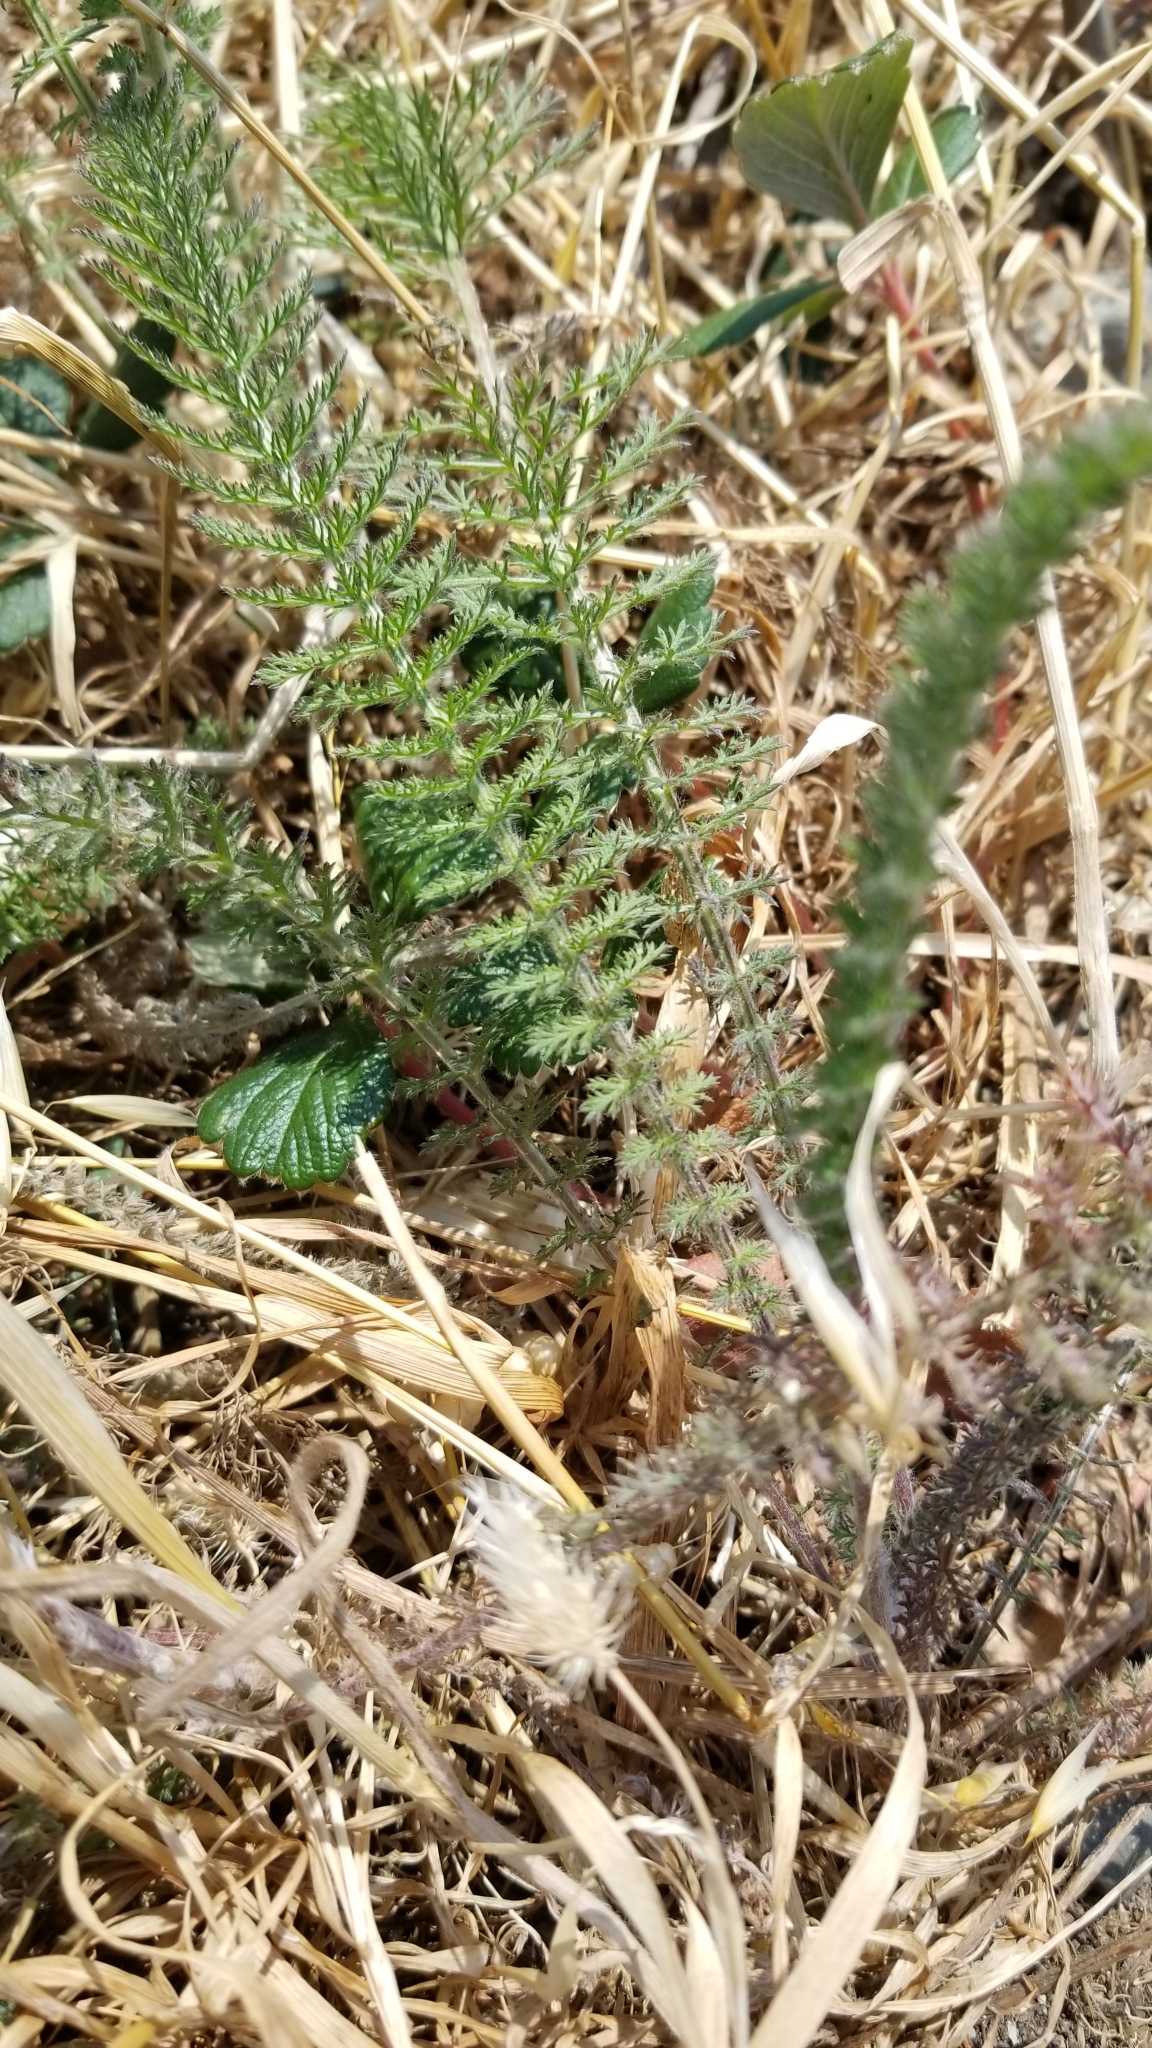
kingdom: Plantae
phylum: Tracheophyta
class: Magnoliopsida
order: Asterales
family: Asteraceae
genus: Achillea
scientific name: Achillea millefolium
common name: Yarrow
